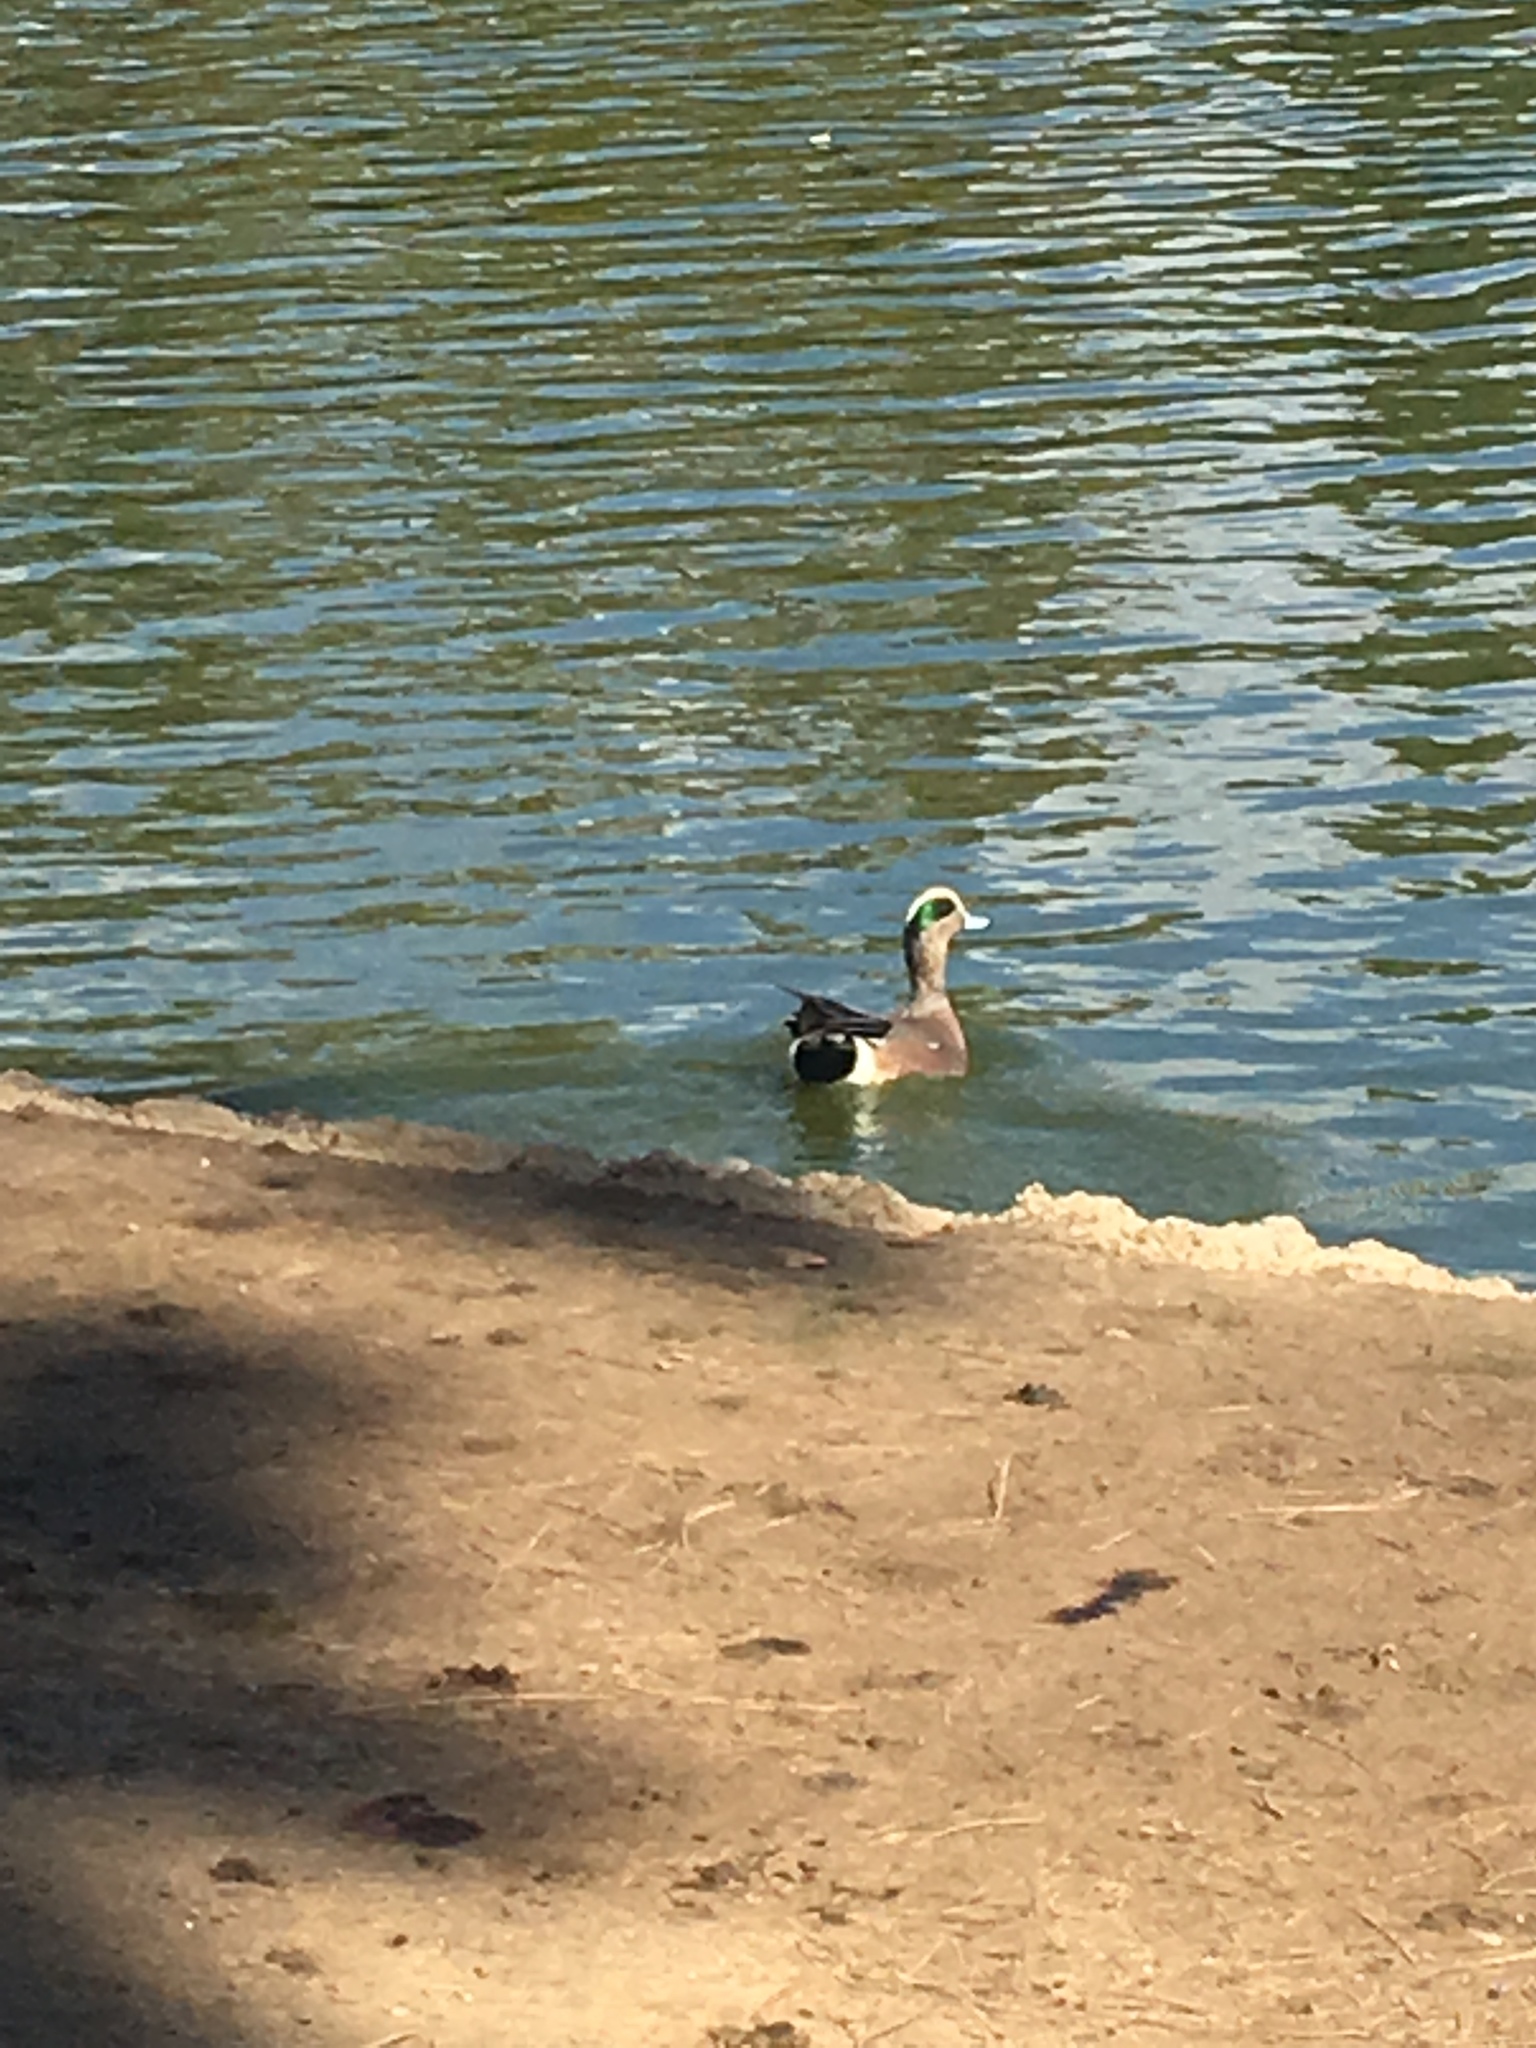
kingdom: Animalia
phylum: Chordata
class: Aves
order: Anseriformes
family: Anatidae
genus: Mareca
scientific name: Mareca americana
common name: American wigeon
